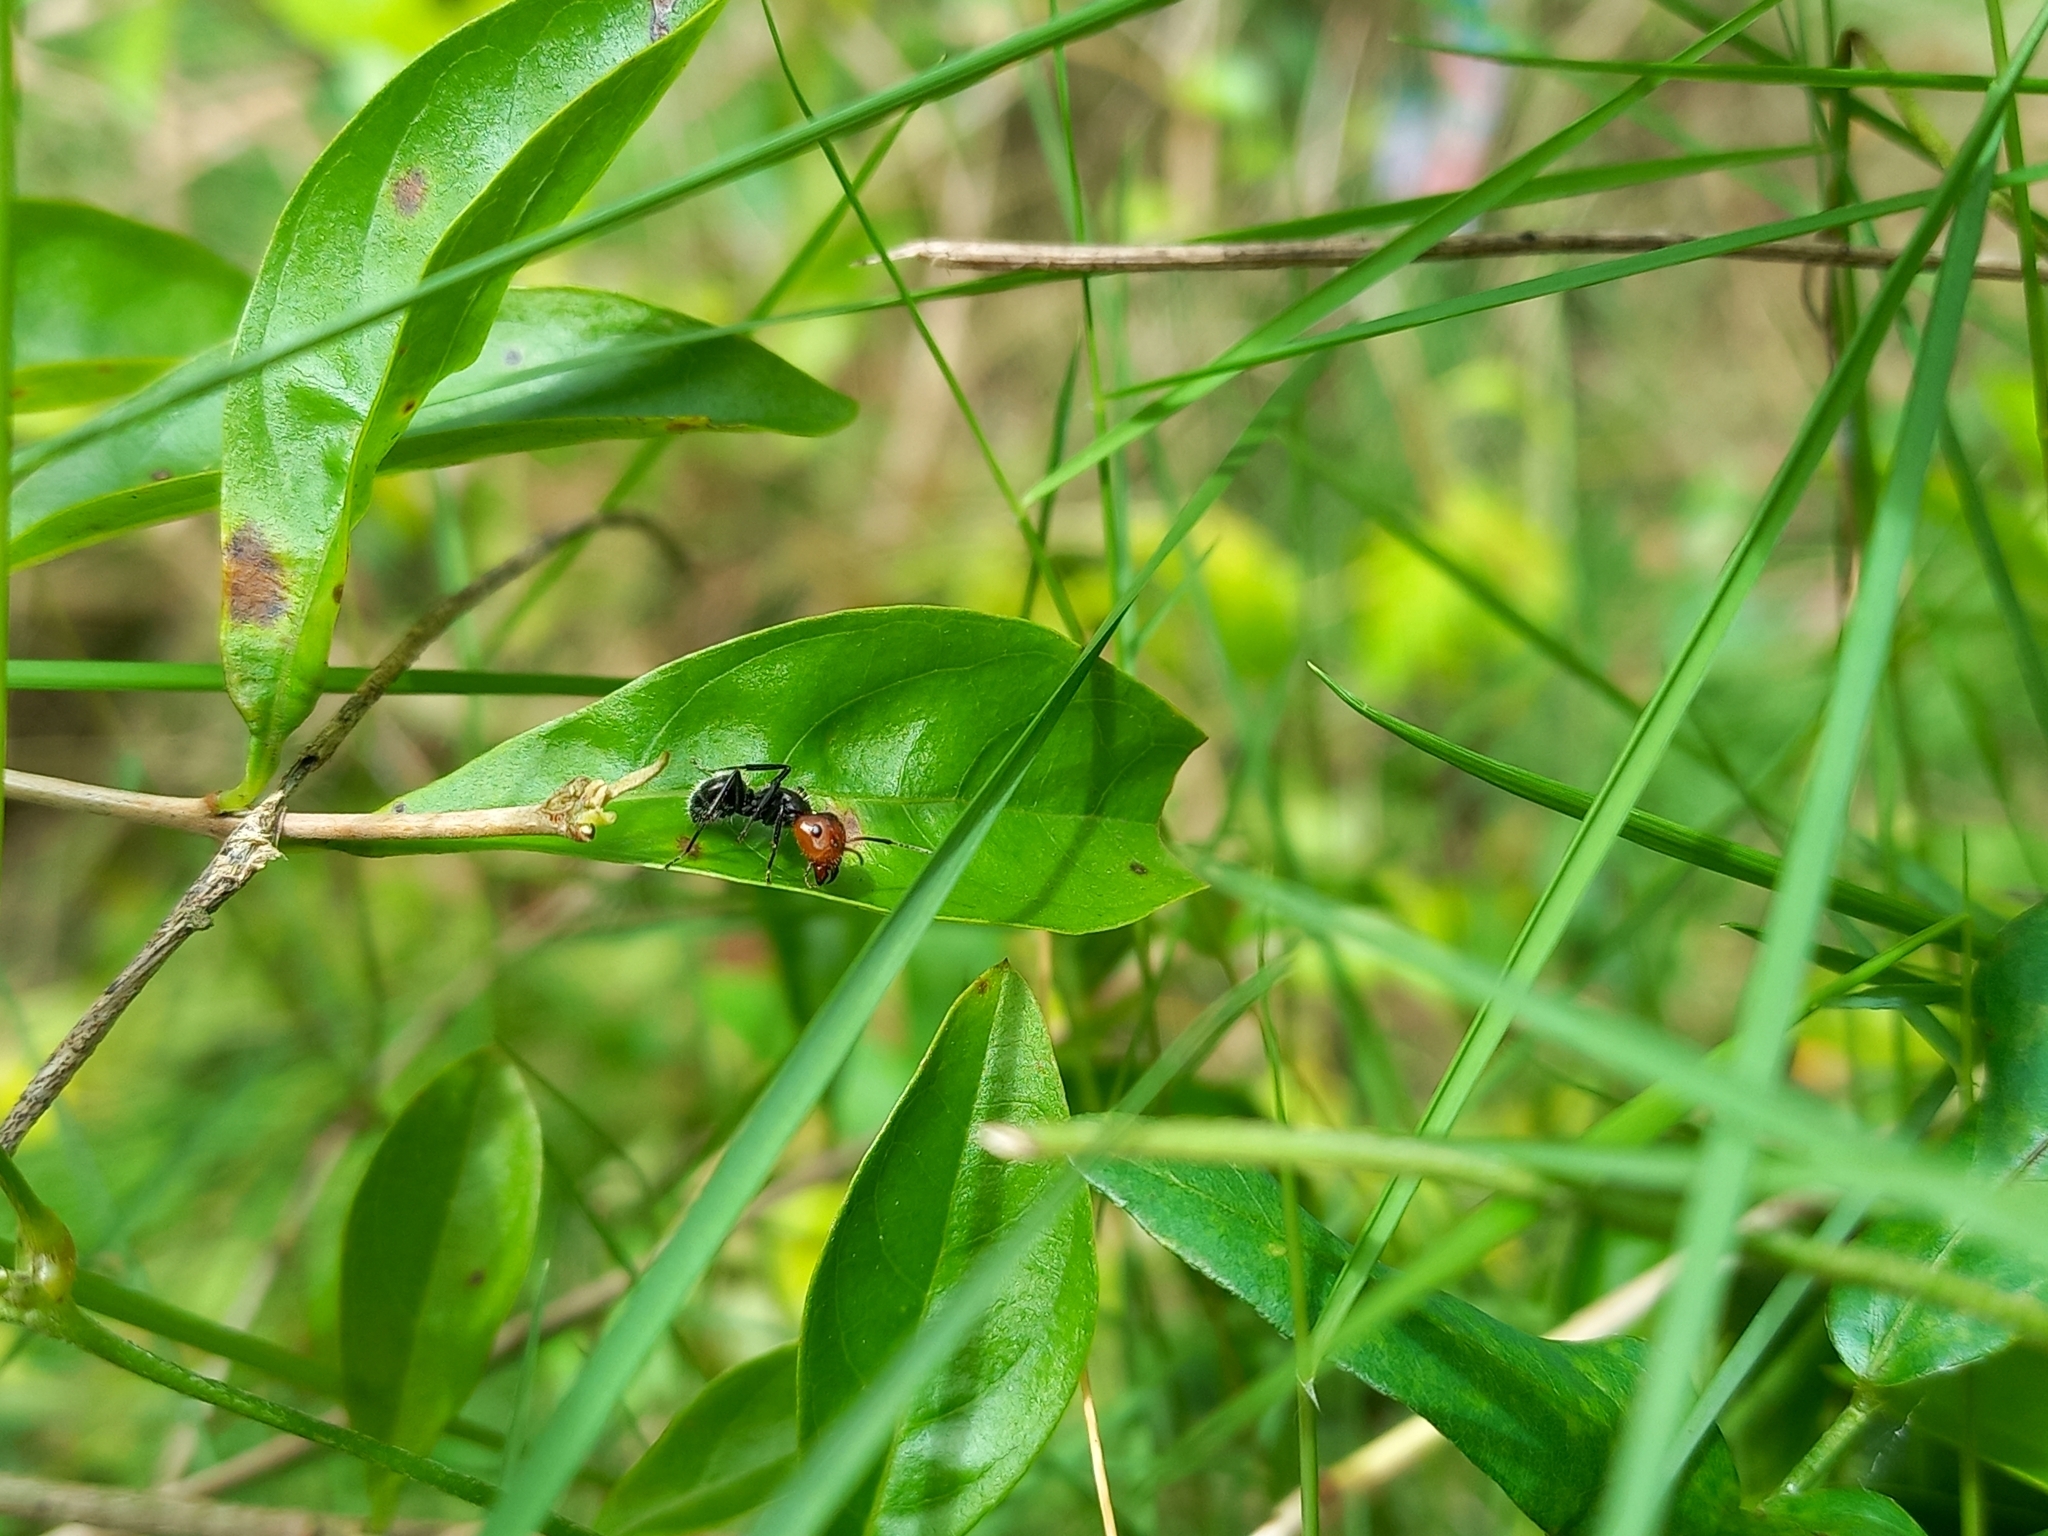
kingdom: Animalia
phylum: Arthropoda
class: Insecta
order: Hymenoptera
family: Formicidae
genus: Camponotus
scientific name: Camponotus lindigi
